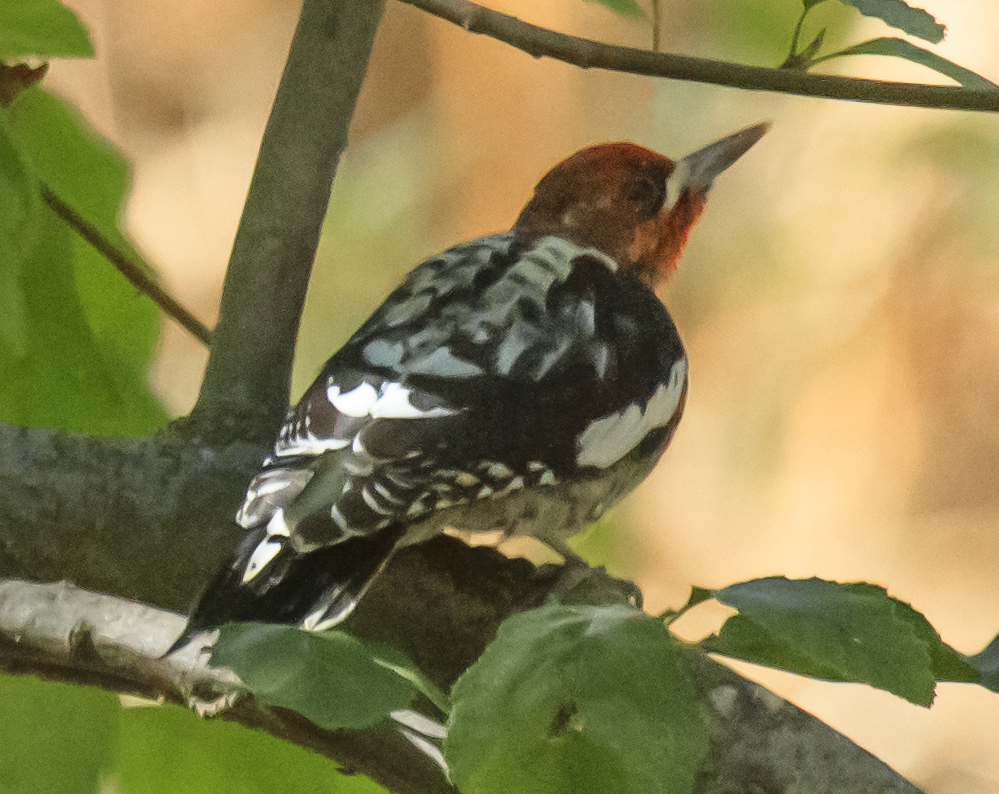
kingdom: Animalia
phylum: Chordata
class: Aves
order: Piciformes
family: Picidae
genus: Sphyrapicus
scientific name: Sphyrapicus ruber
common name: Red-breasted sapsucker
